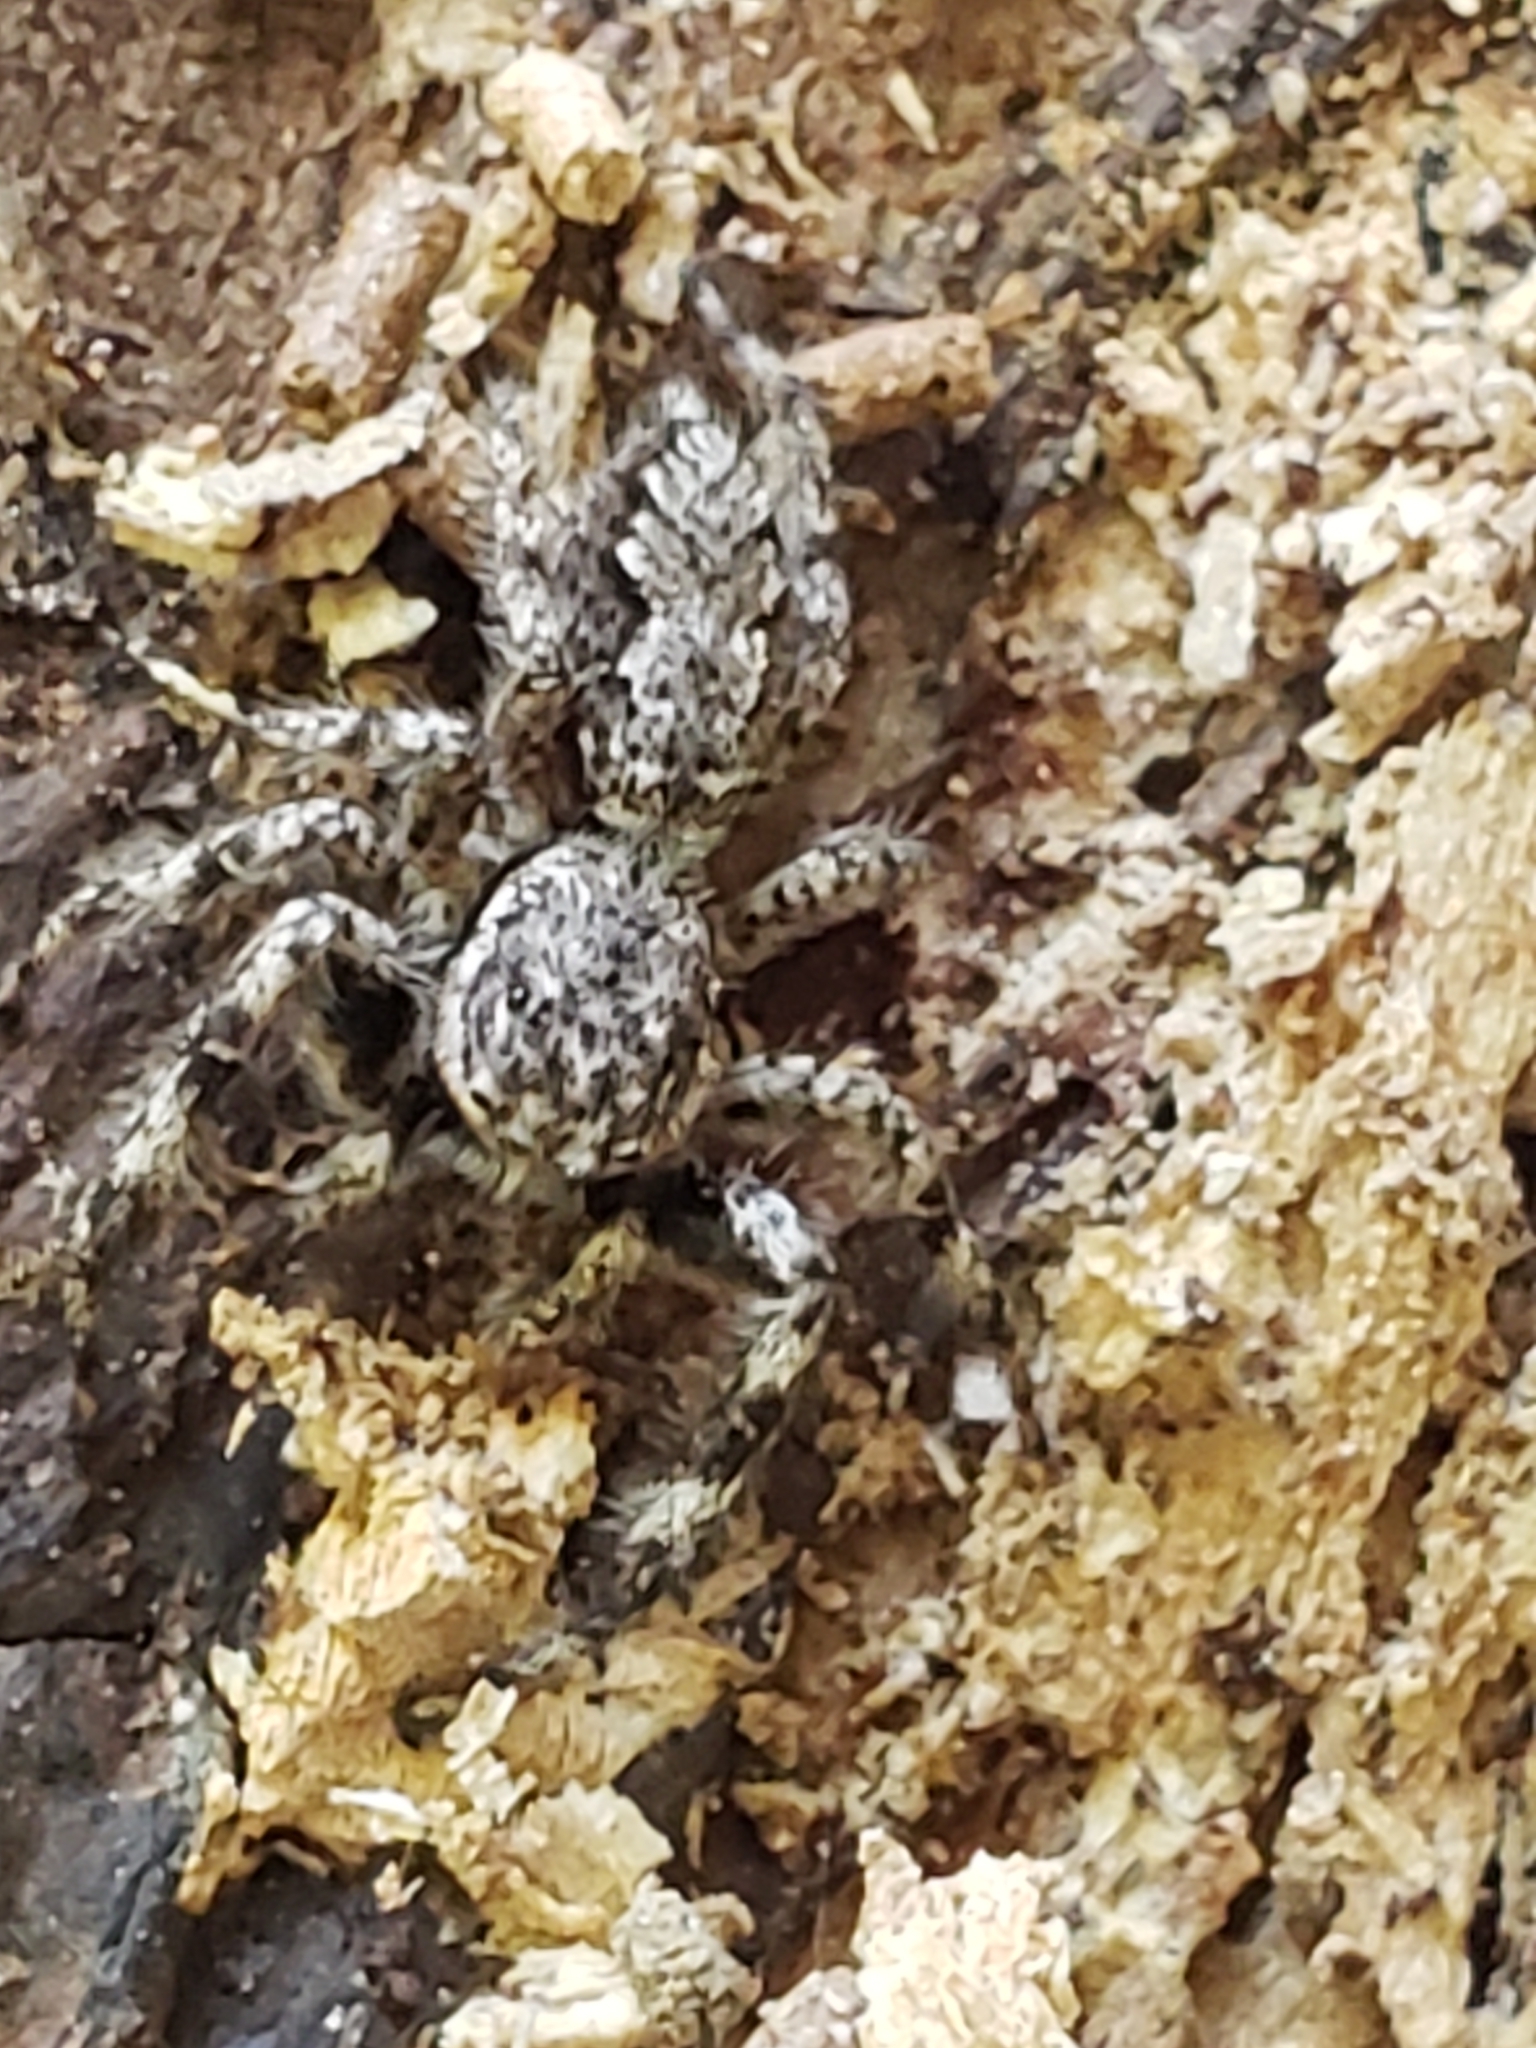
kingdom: Animalia
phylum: Arthropoda
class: Arachnida
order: Araneae
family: Salticidae
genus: Platycryptus
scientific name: Platycryptus undatus
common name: Tan jumping spider
